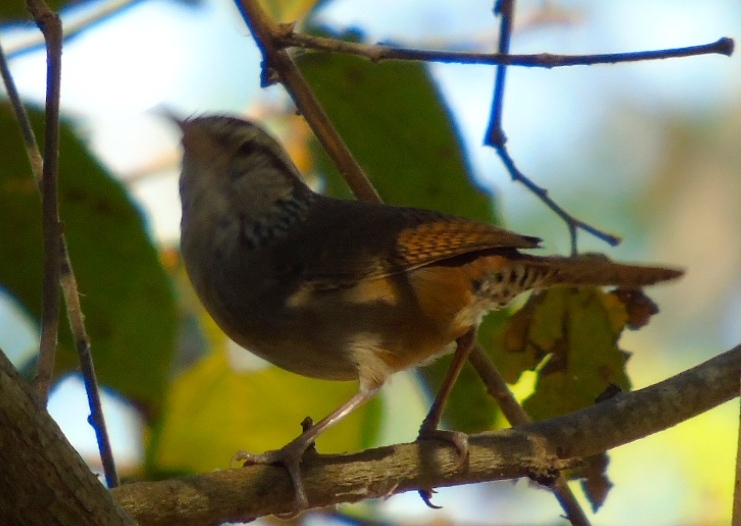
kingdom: Animalia
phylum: Chordata
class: Aves
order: Passeriformes
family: Troglodytidae
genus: Thryophilus
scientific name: Thryophilus sinaloa
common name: Sinaloa wren
